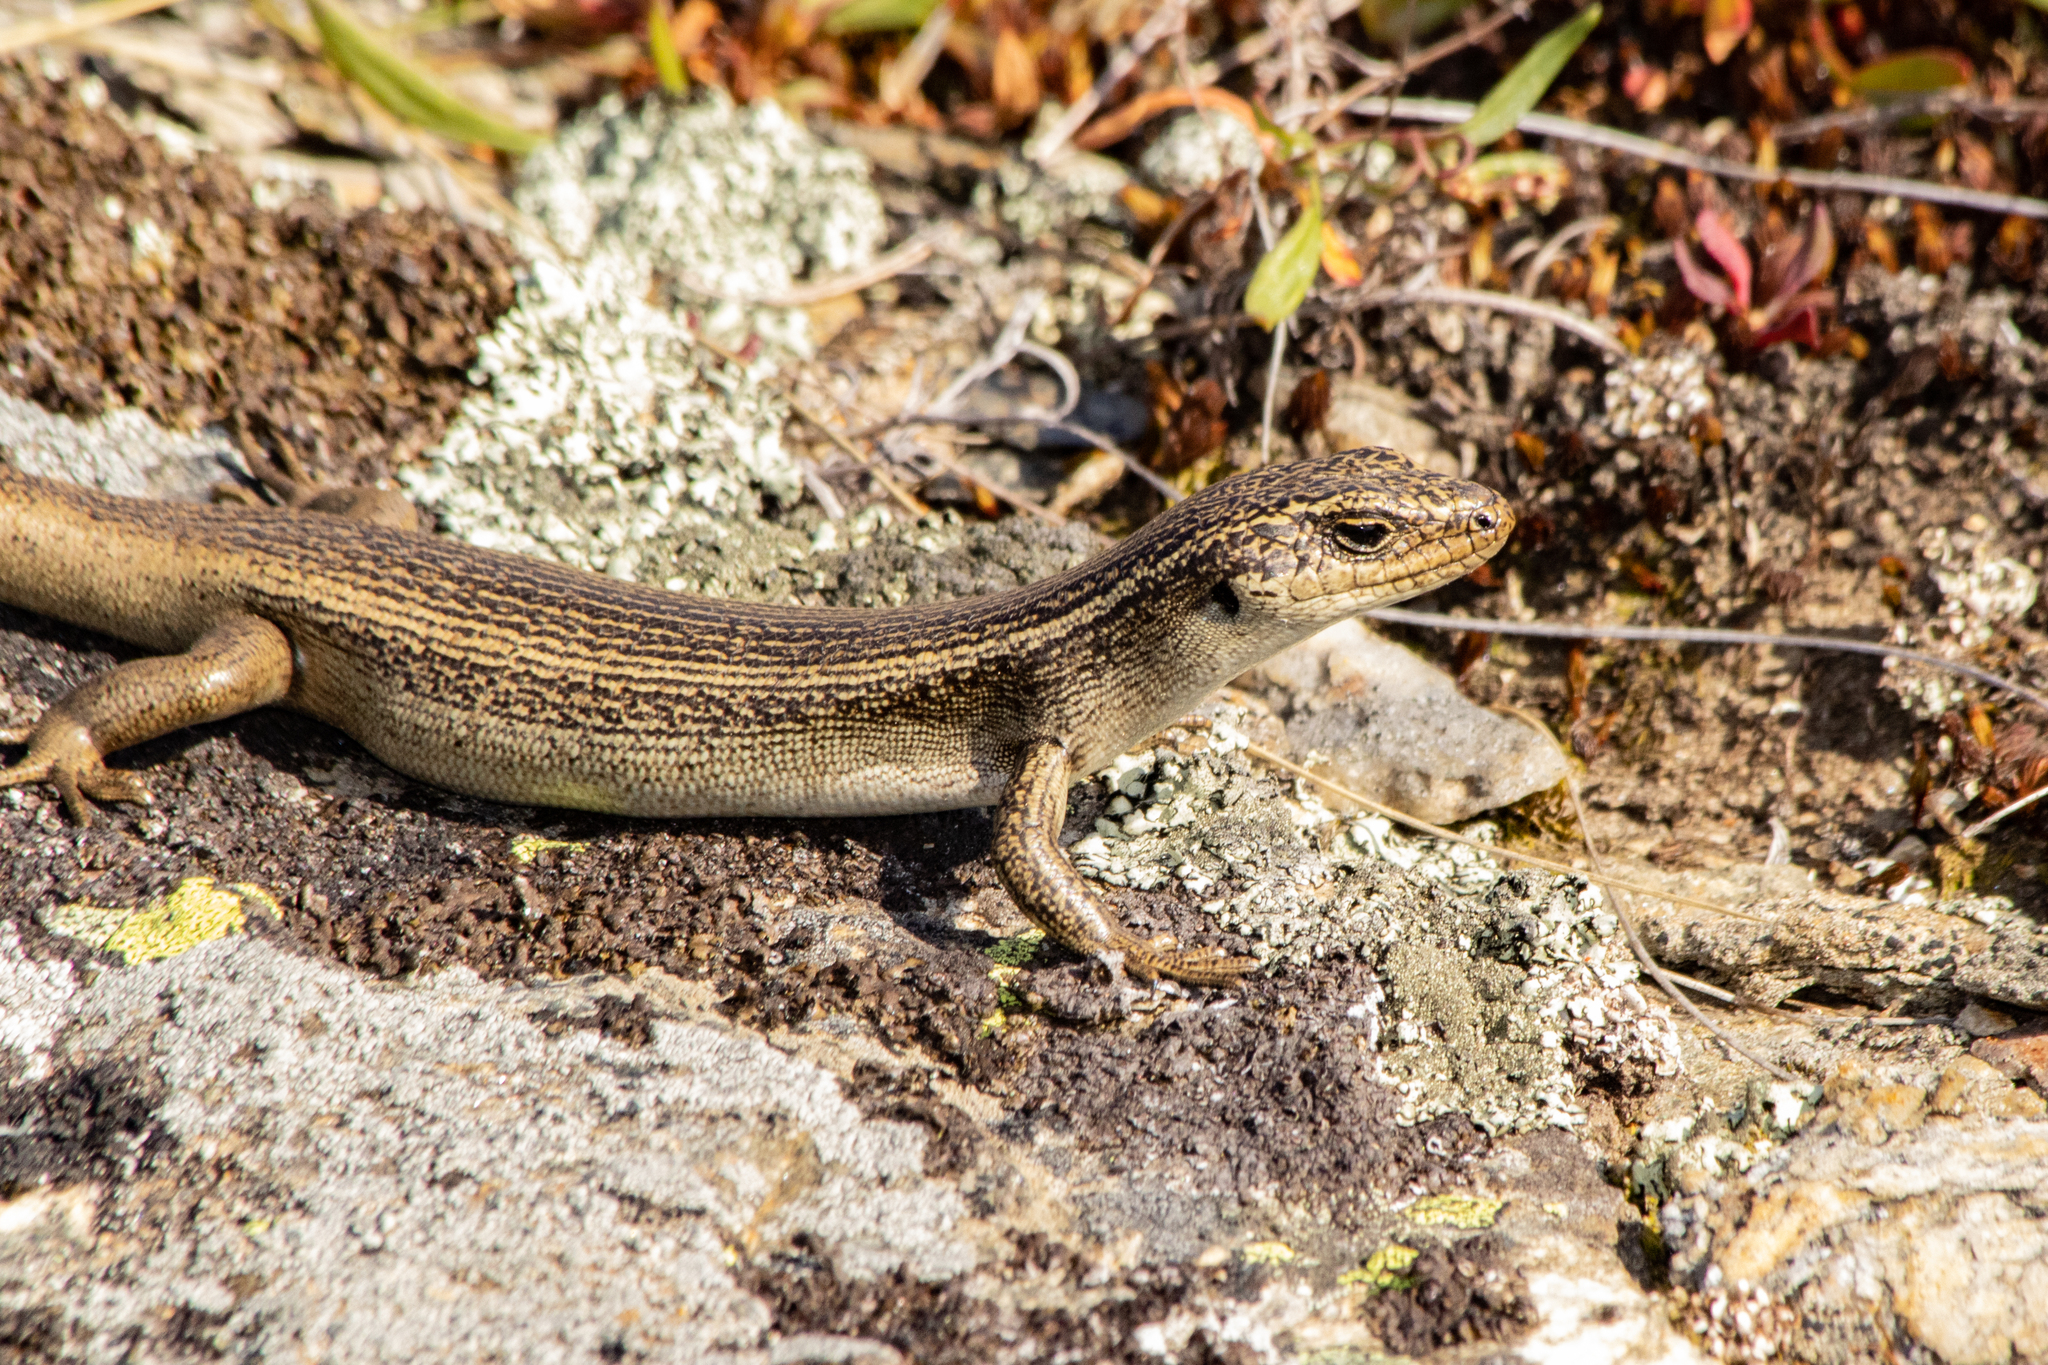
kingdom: Animalia
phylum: Chordata
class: Squamata
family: Scincidae
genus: Oligosoma
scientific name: Oligosoma grande
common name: Grand skink
